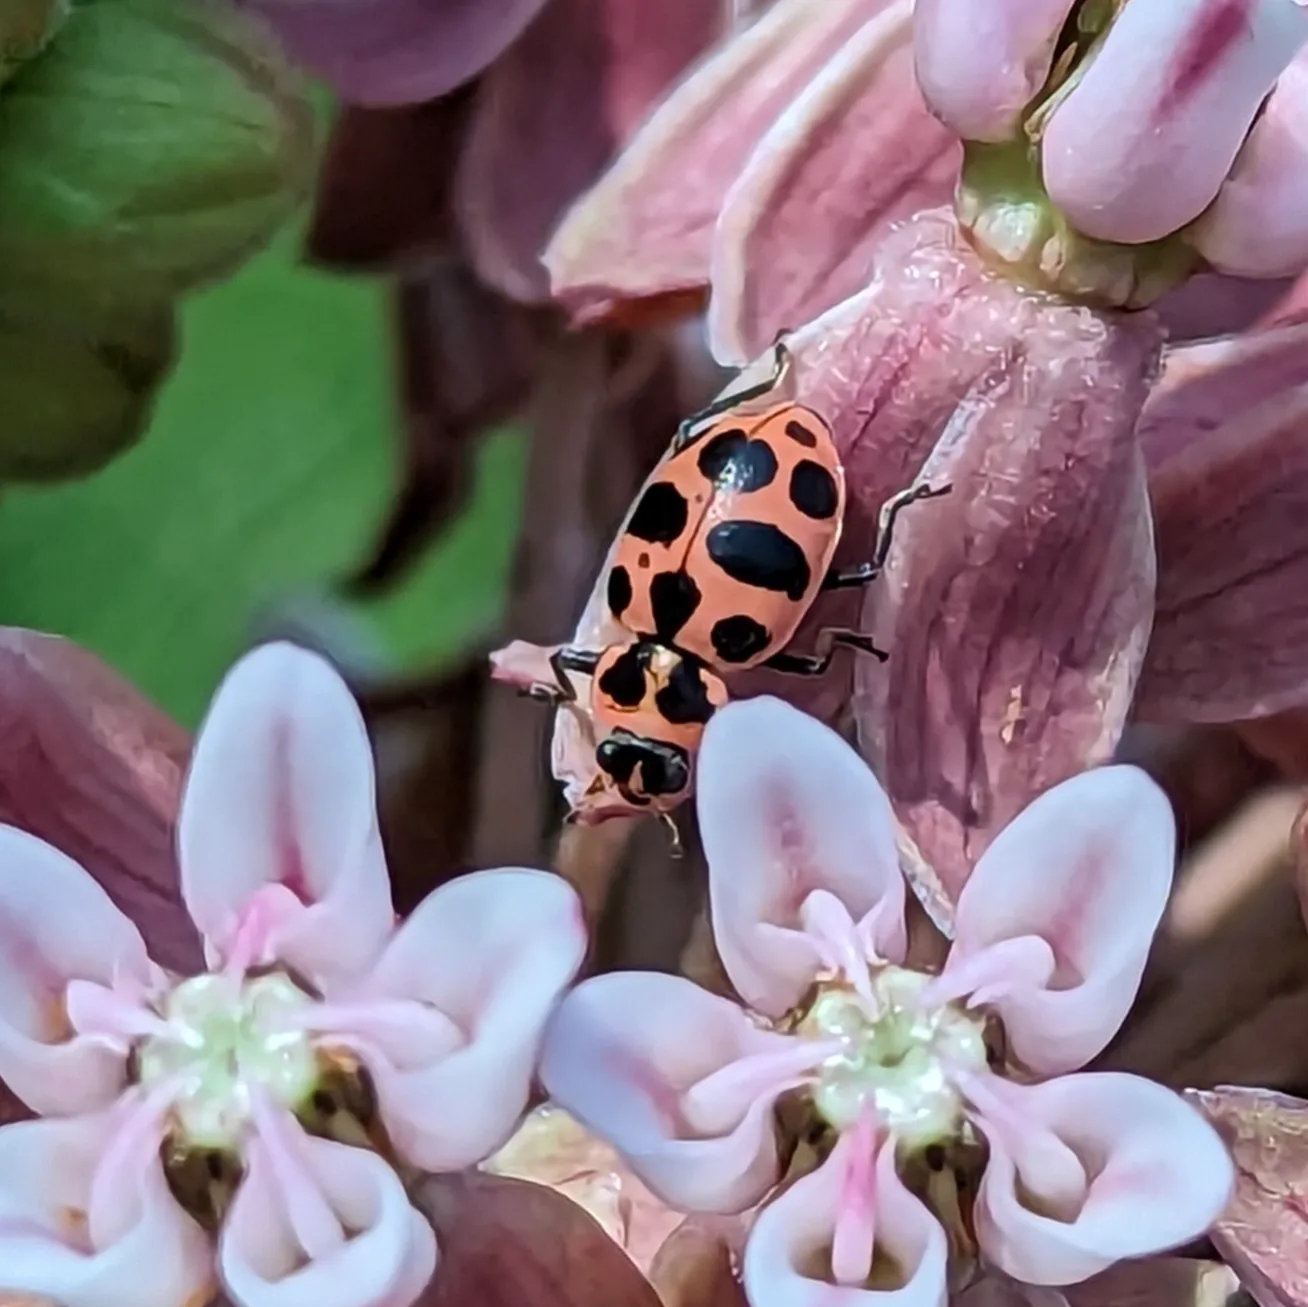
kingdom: Animalia
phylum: Arthropoda
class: Insecta
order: Coleoptera
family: Coccinellidae
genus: Coleomegilla
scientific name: Coleomegilla maculata
